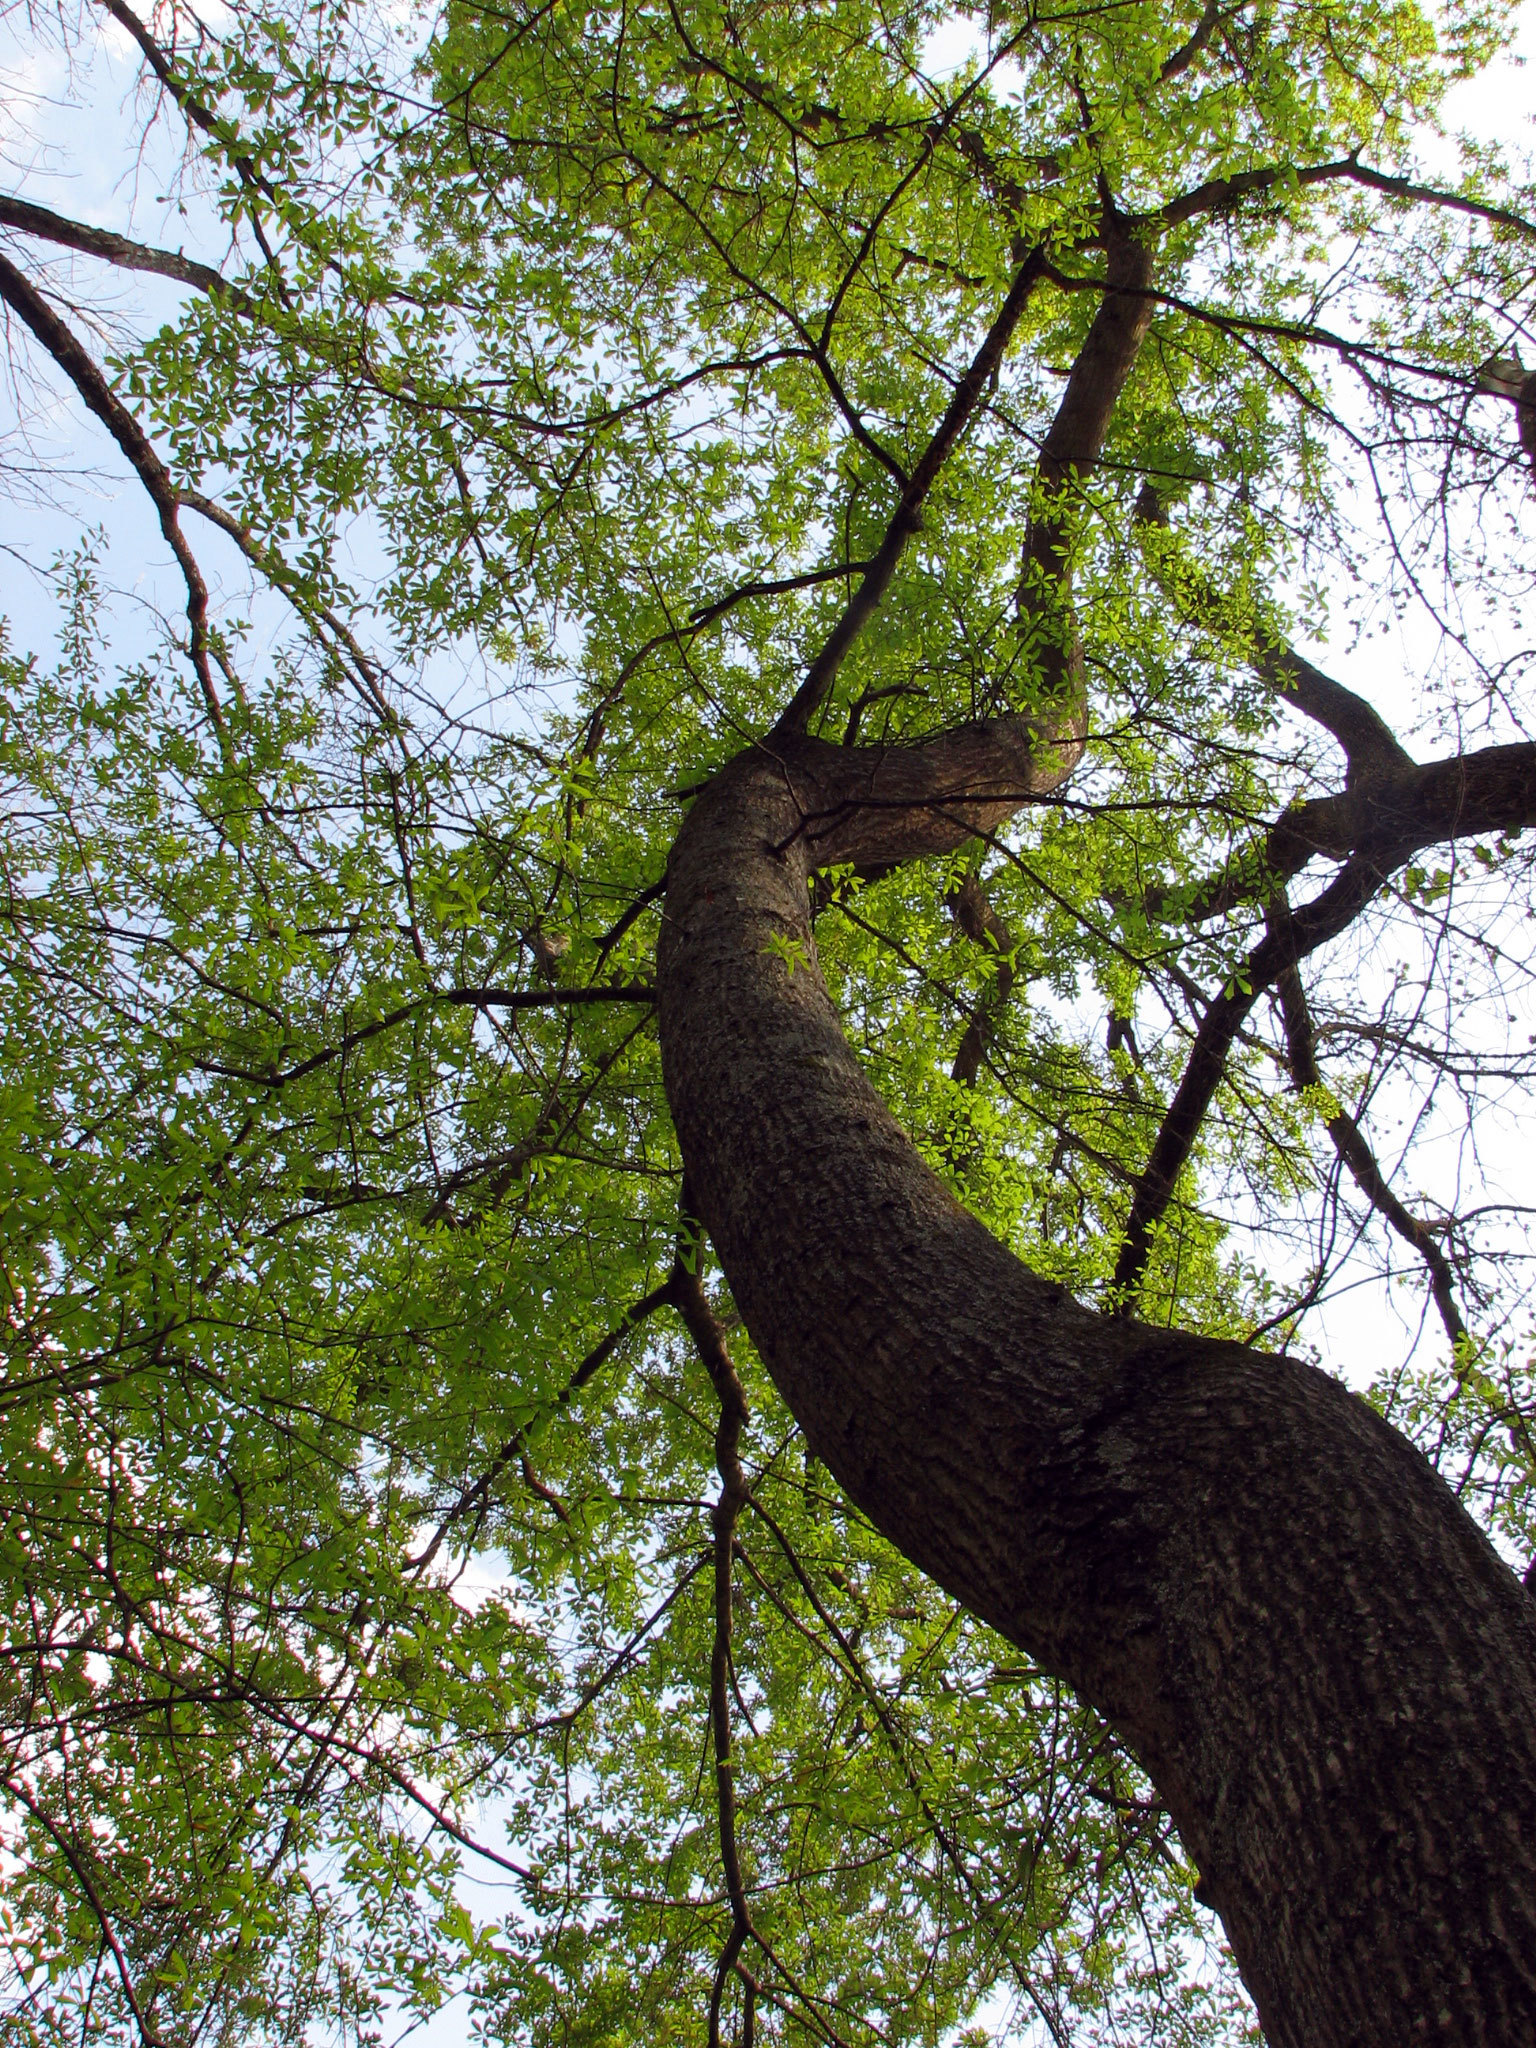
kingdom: Plantae
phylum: Tracheophyta
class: Magnoliopsida
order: Fagales
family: Fagaceae
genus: Quercus
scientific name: Quercus nigra
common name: Water oak
